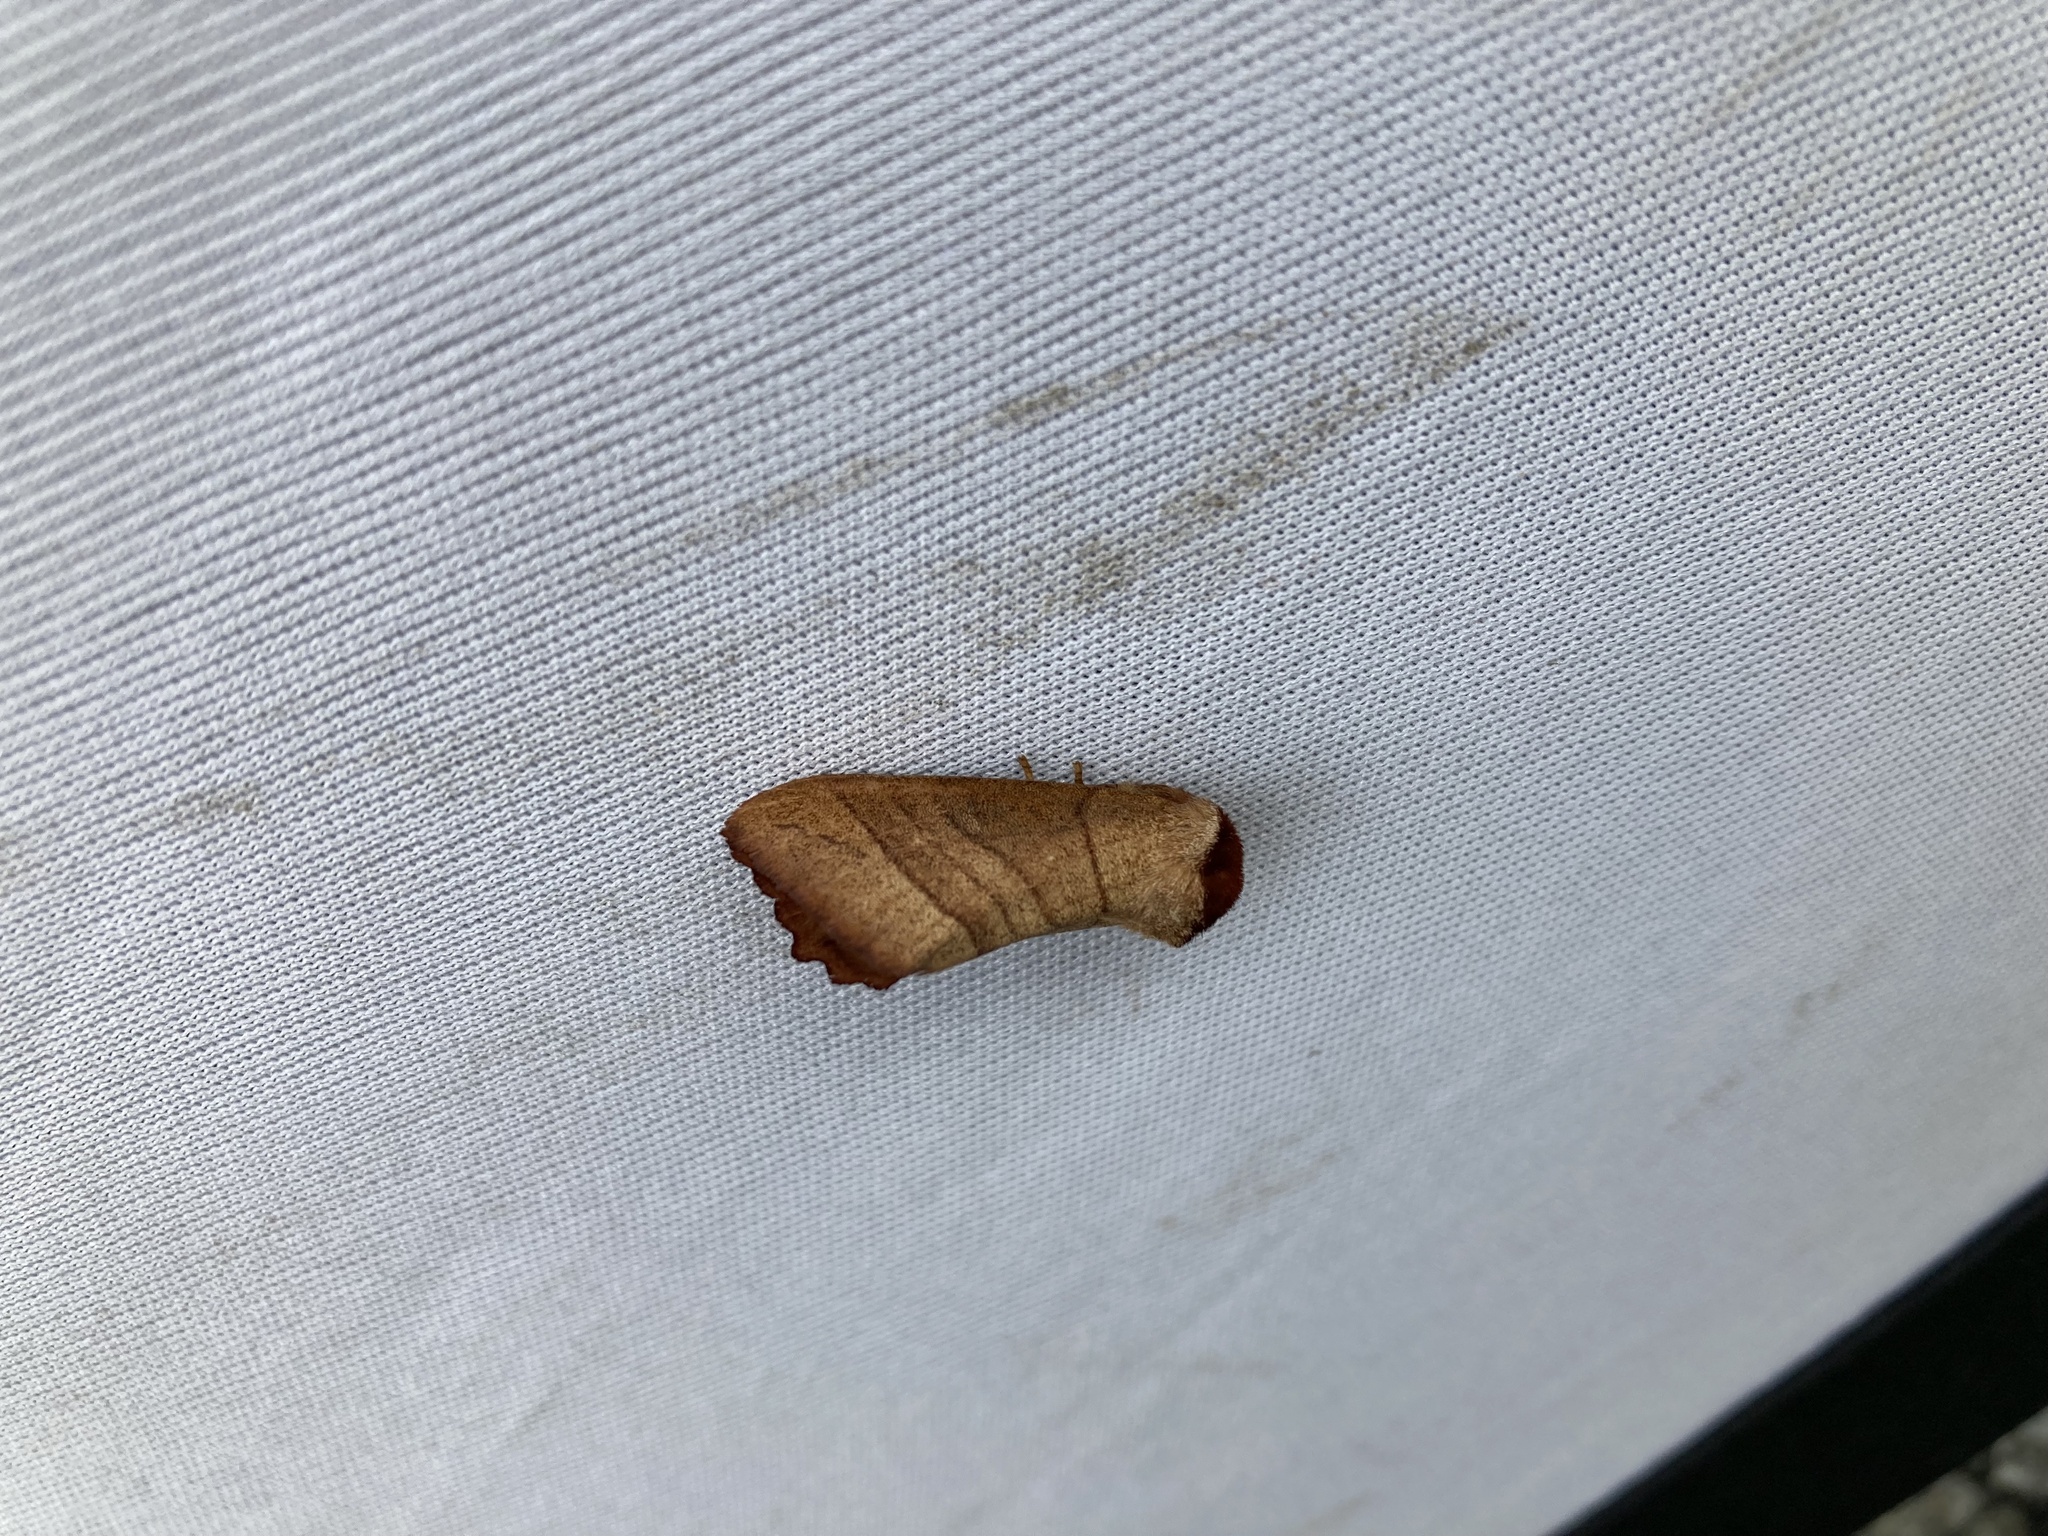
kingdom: Animalia
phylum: Arthropoda
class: Insecta
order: Lepidoptera
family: Notodontidae
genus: Datana
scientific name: Datana ministra
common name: Yellow-necked caterpillar moth
